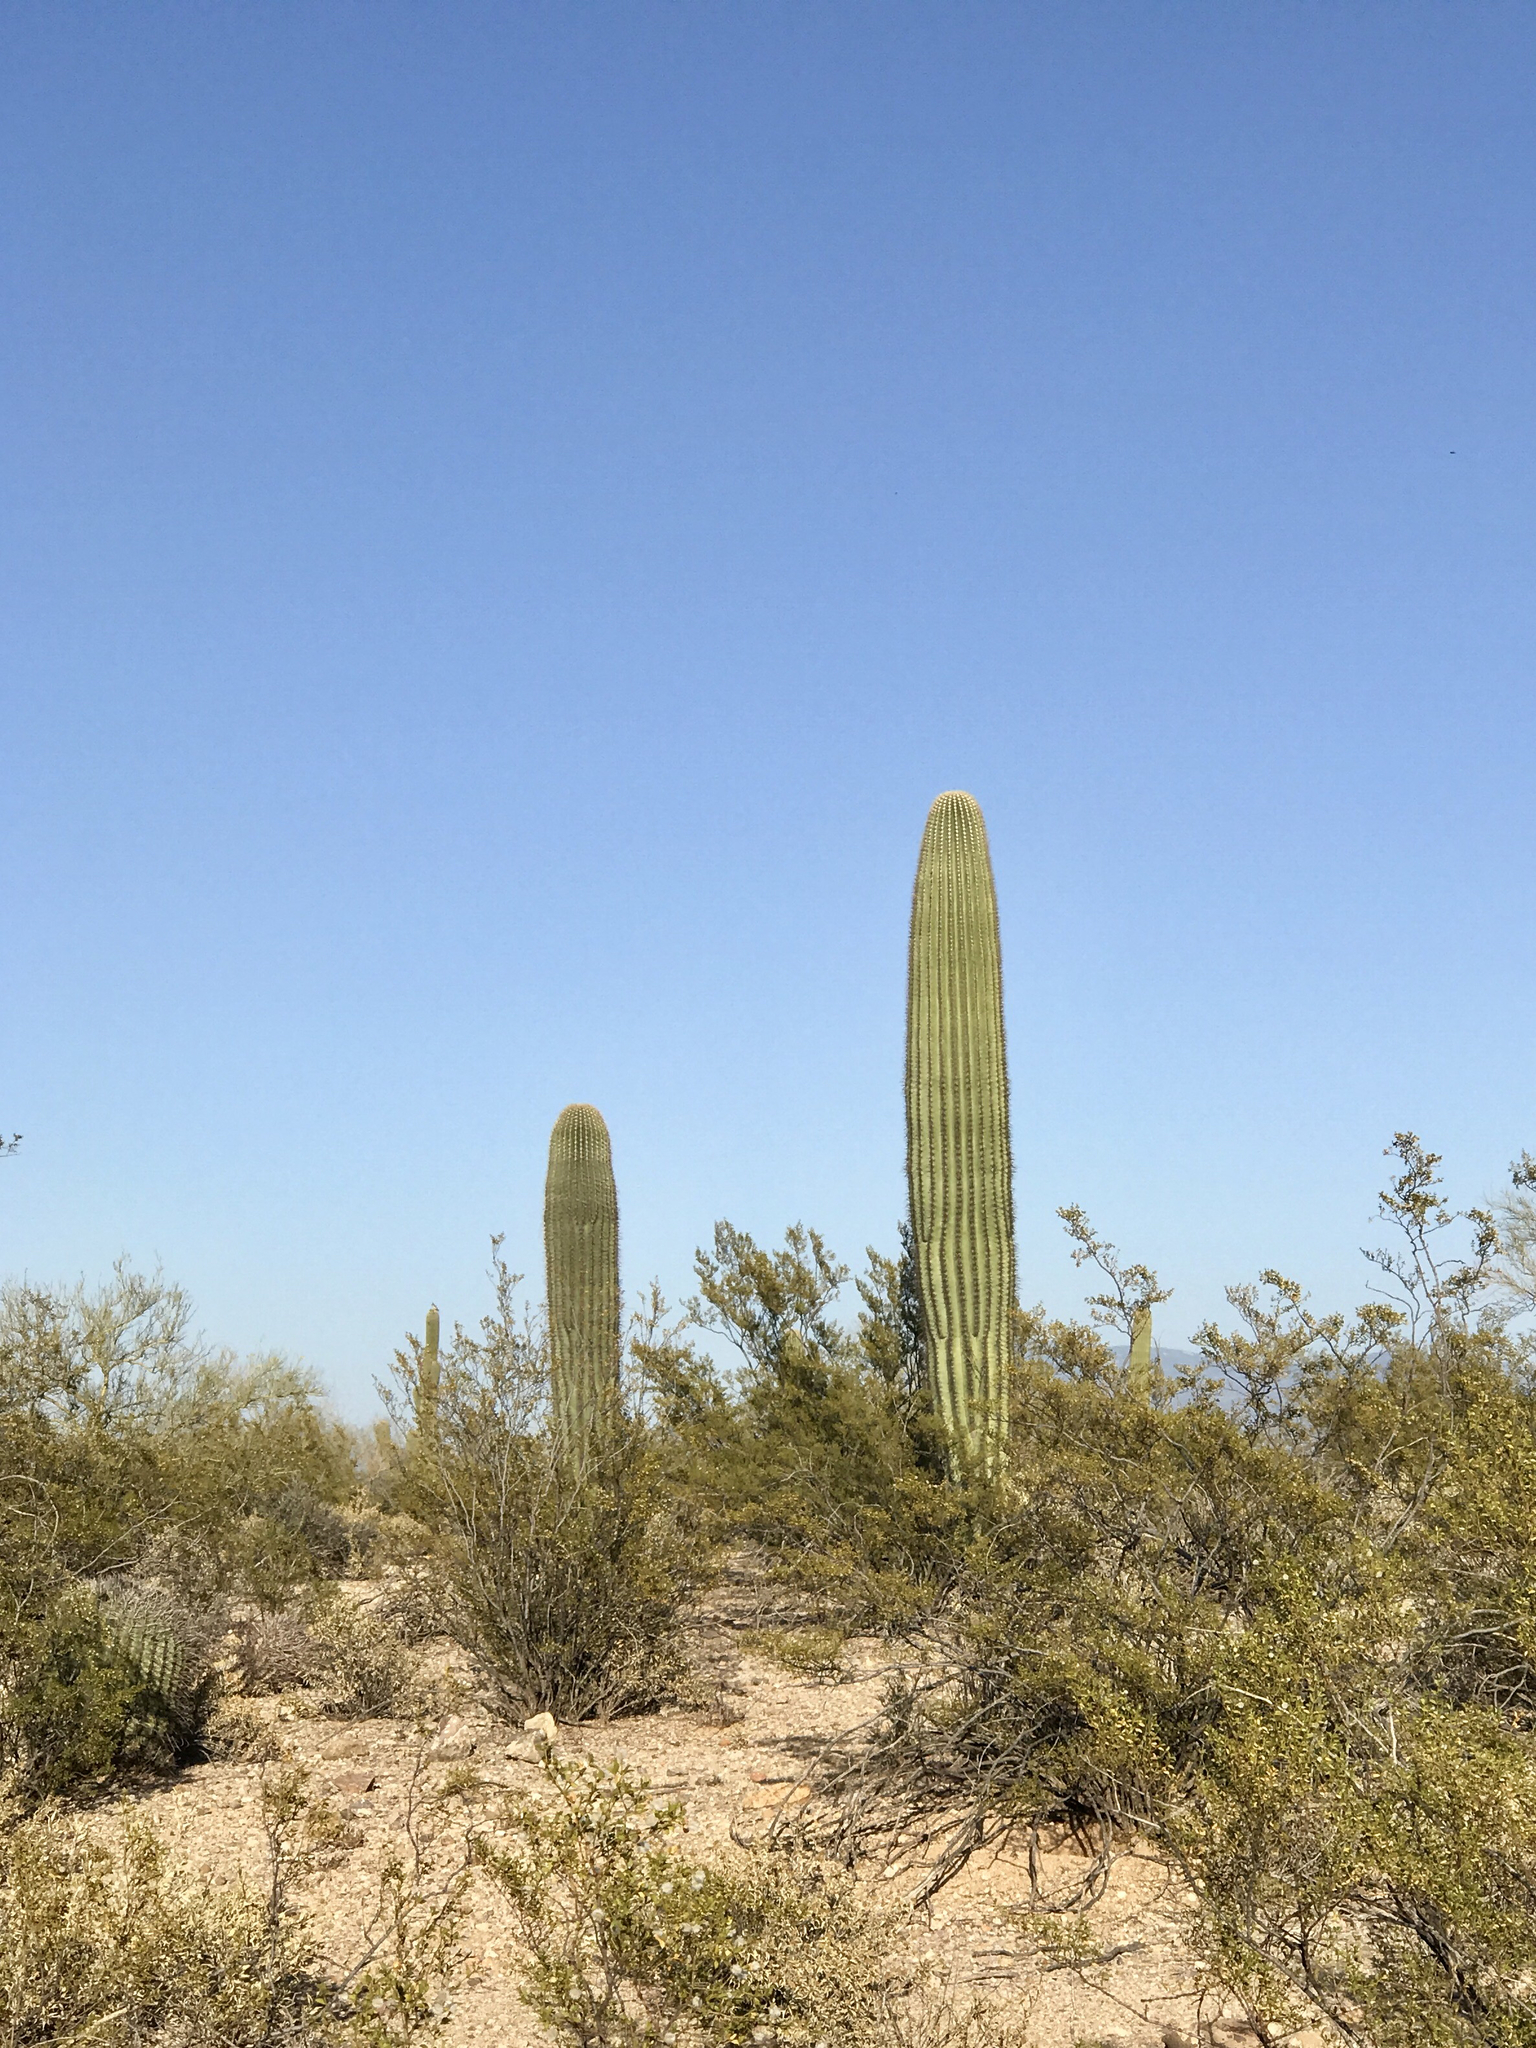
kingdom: Plantae
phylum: Tracheophyta
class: Magnoliopsida
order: Caryophyllales
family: Cactaceae
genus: Carnegiea
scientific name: Carnegiea gigantea
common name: Saguaro
